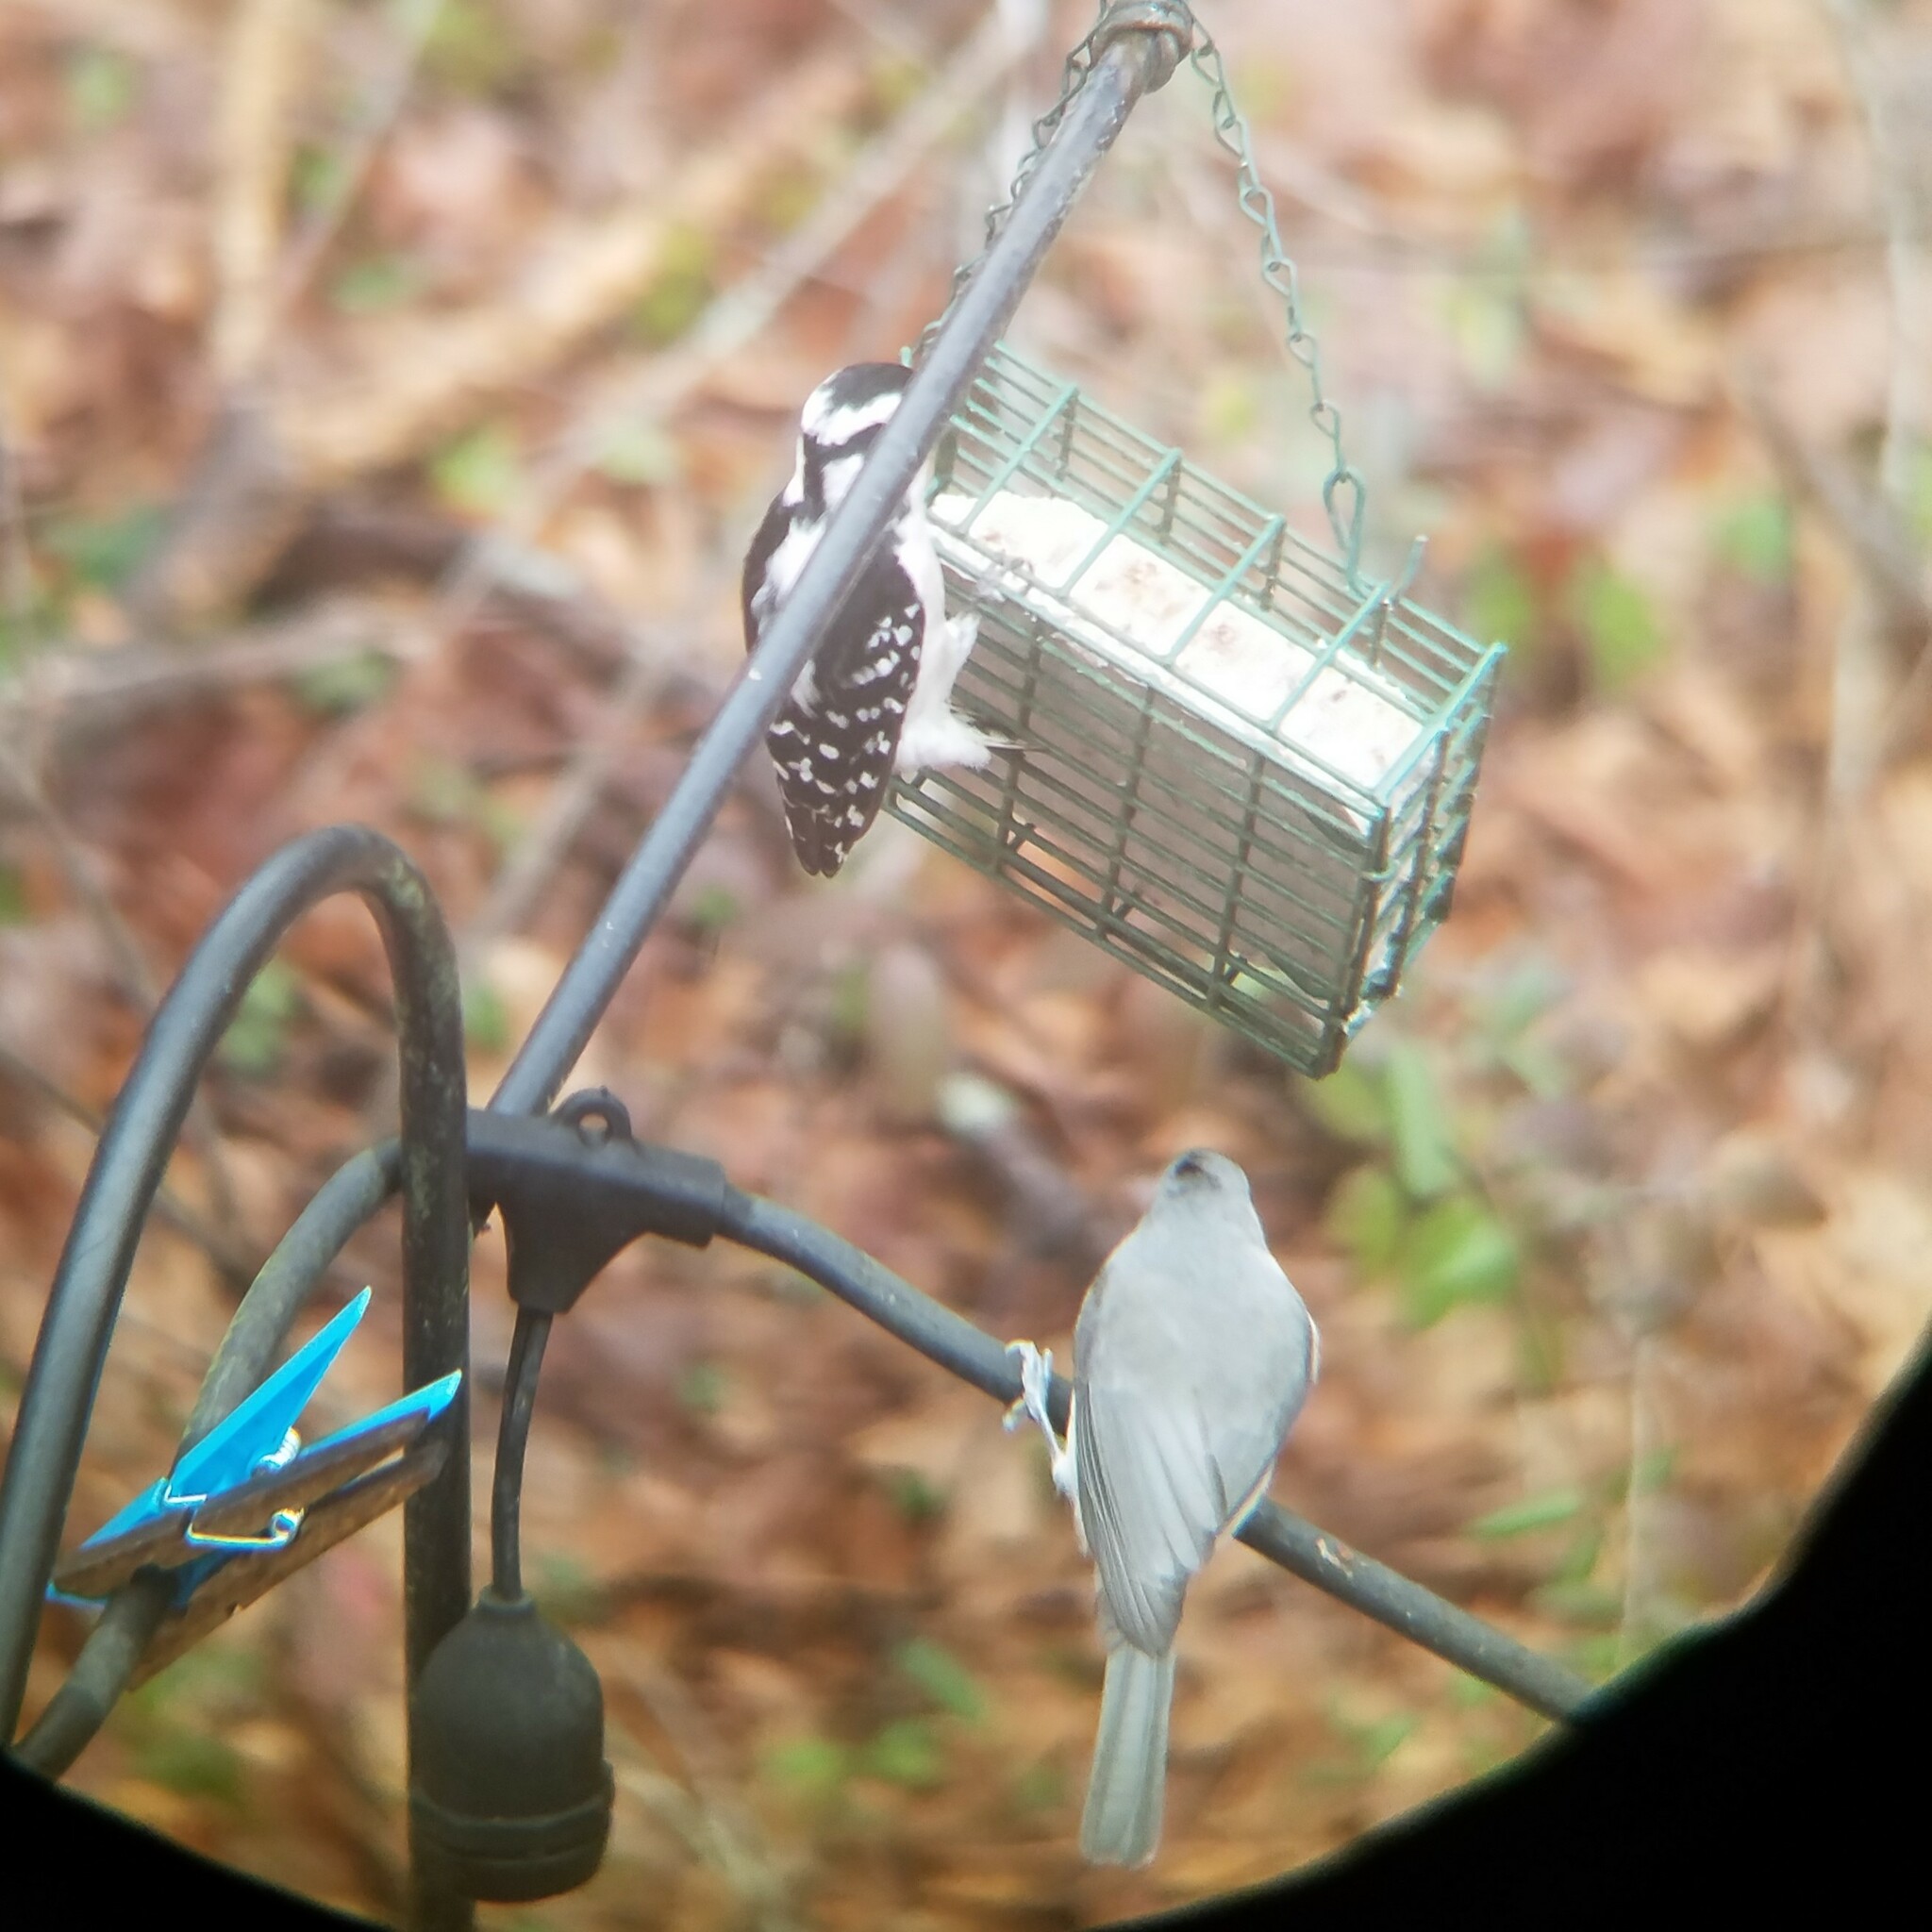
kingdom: Animalia
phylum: Chordata
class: Aves
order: Piciformes
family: Picidae
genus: Dryobates
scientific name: Dryobates pubescens
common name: Downy woodpecker
